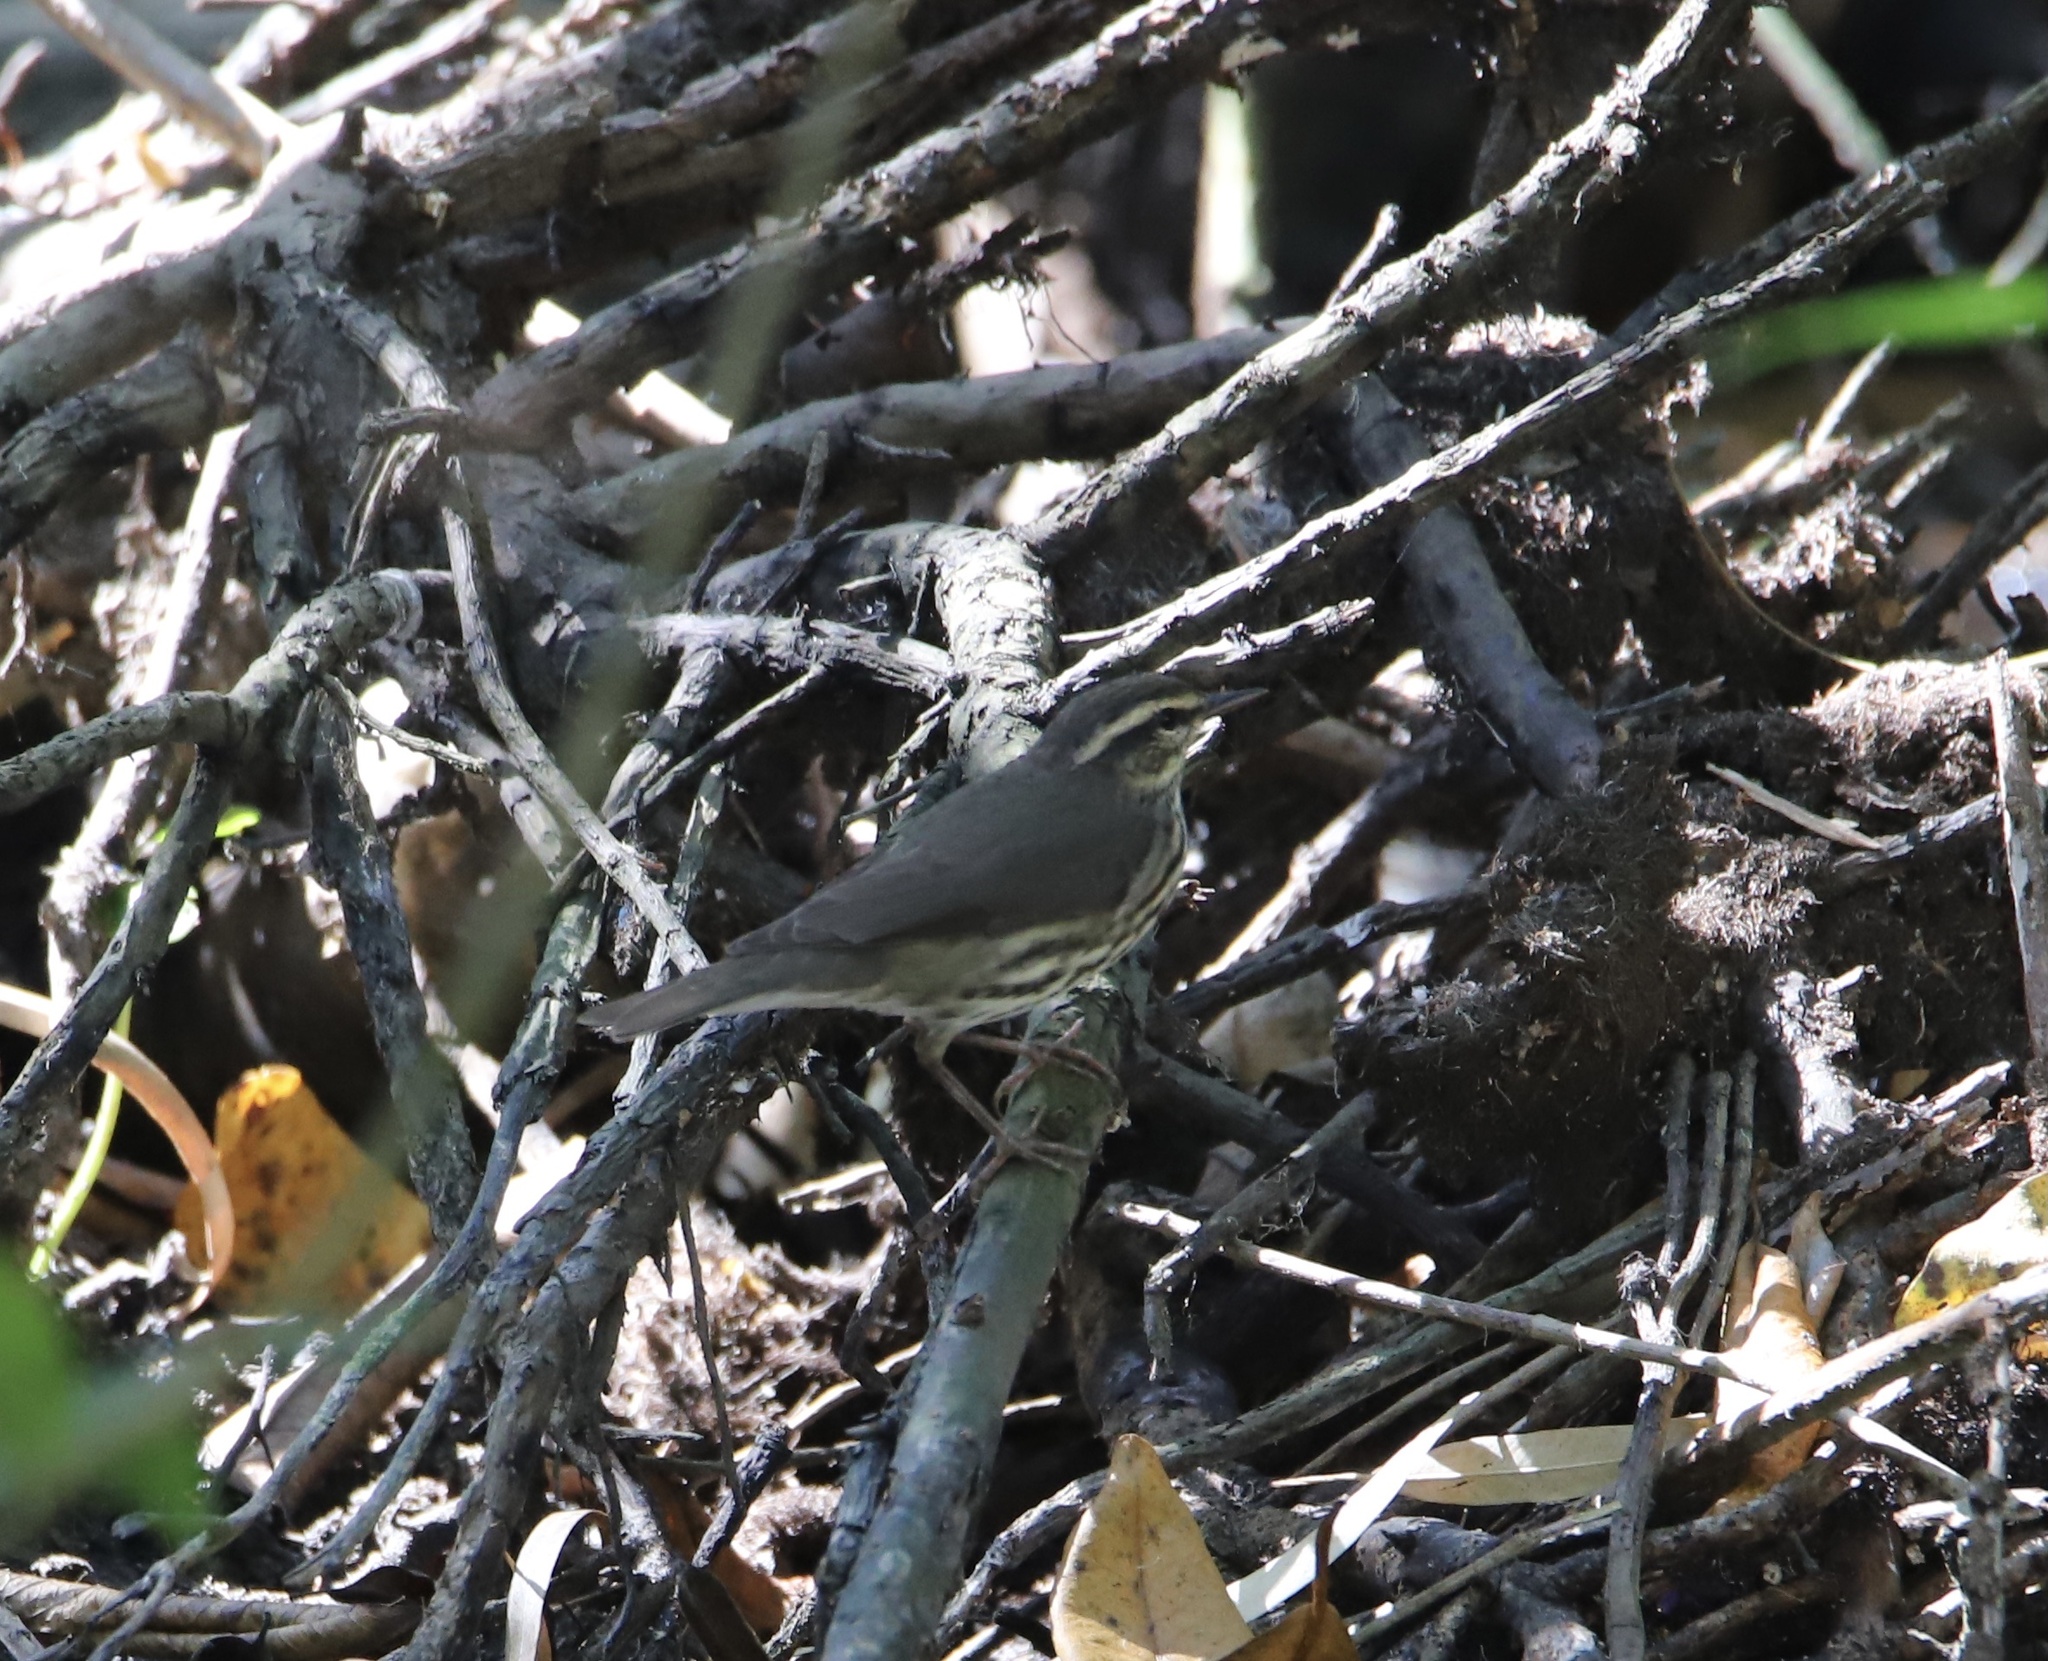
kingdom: Animalia
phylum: Chordata
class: Aves
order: Passeriformes
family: Parulidae
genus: Parkesia
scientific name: Parkesia noveboracensis
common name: Northern waterthrush
